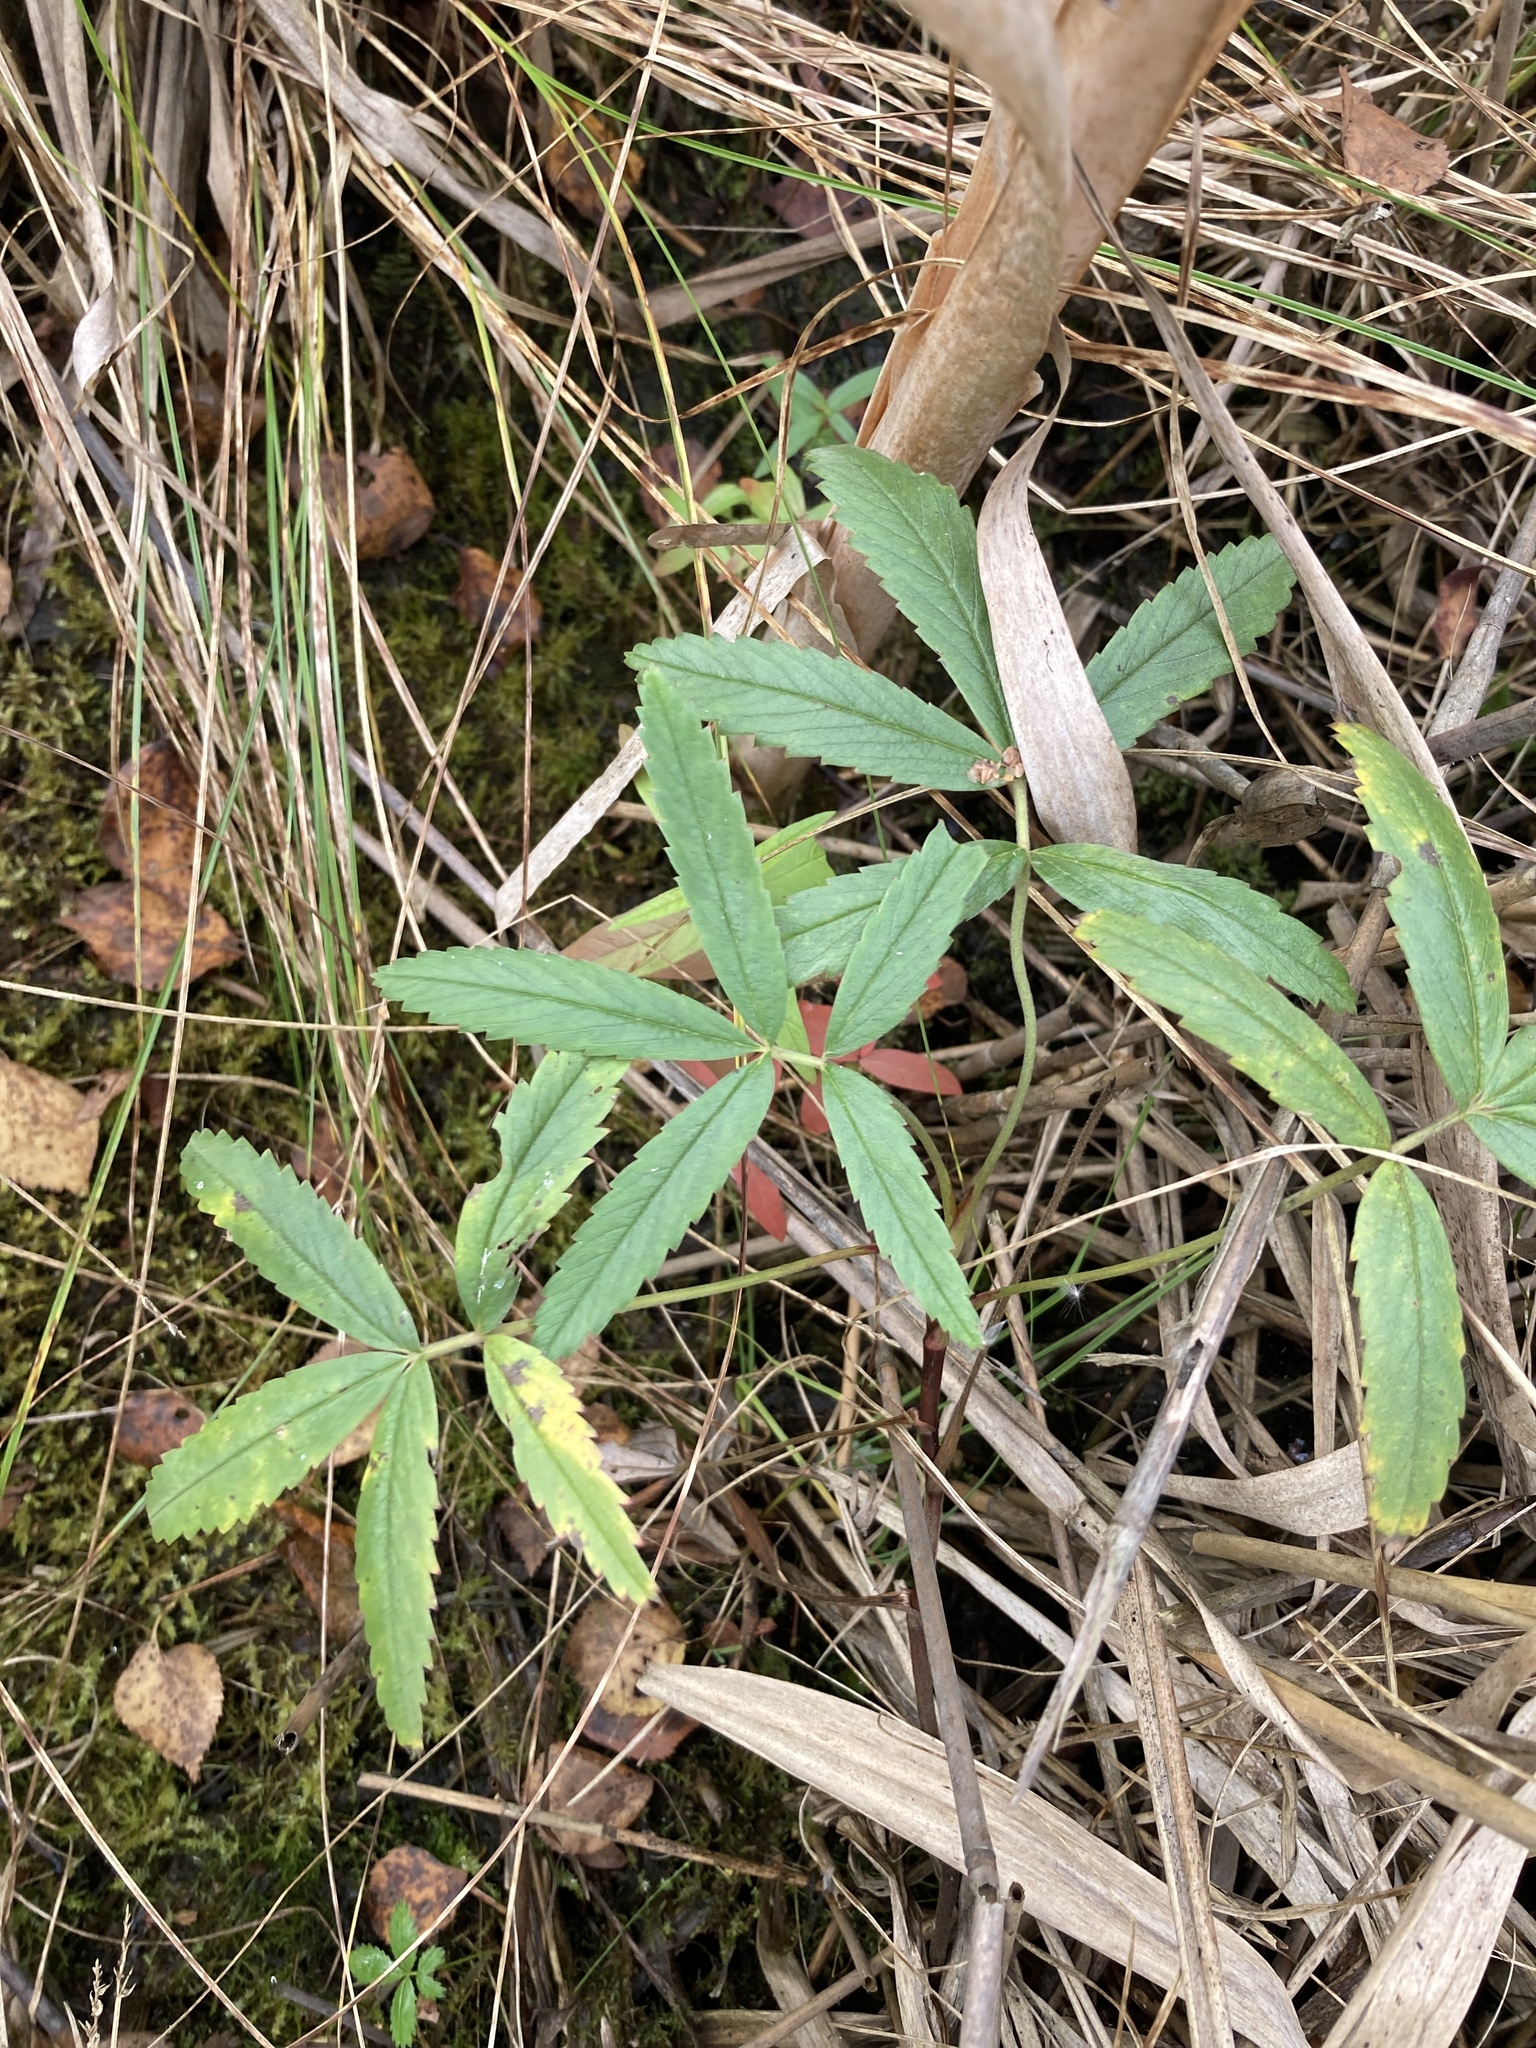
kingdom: Plantae
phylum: Tracheophyta
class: Magnoliopsida
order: Rosales
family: Rosaceae
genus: Comarum
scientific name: Comarum palustre
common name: Marsh cinquefoil
